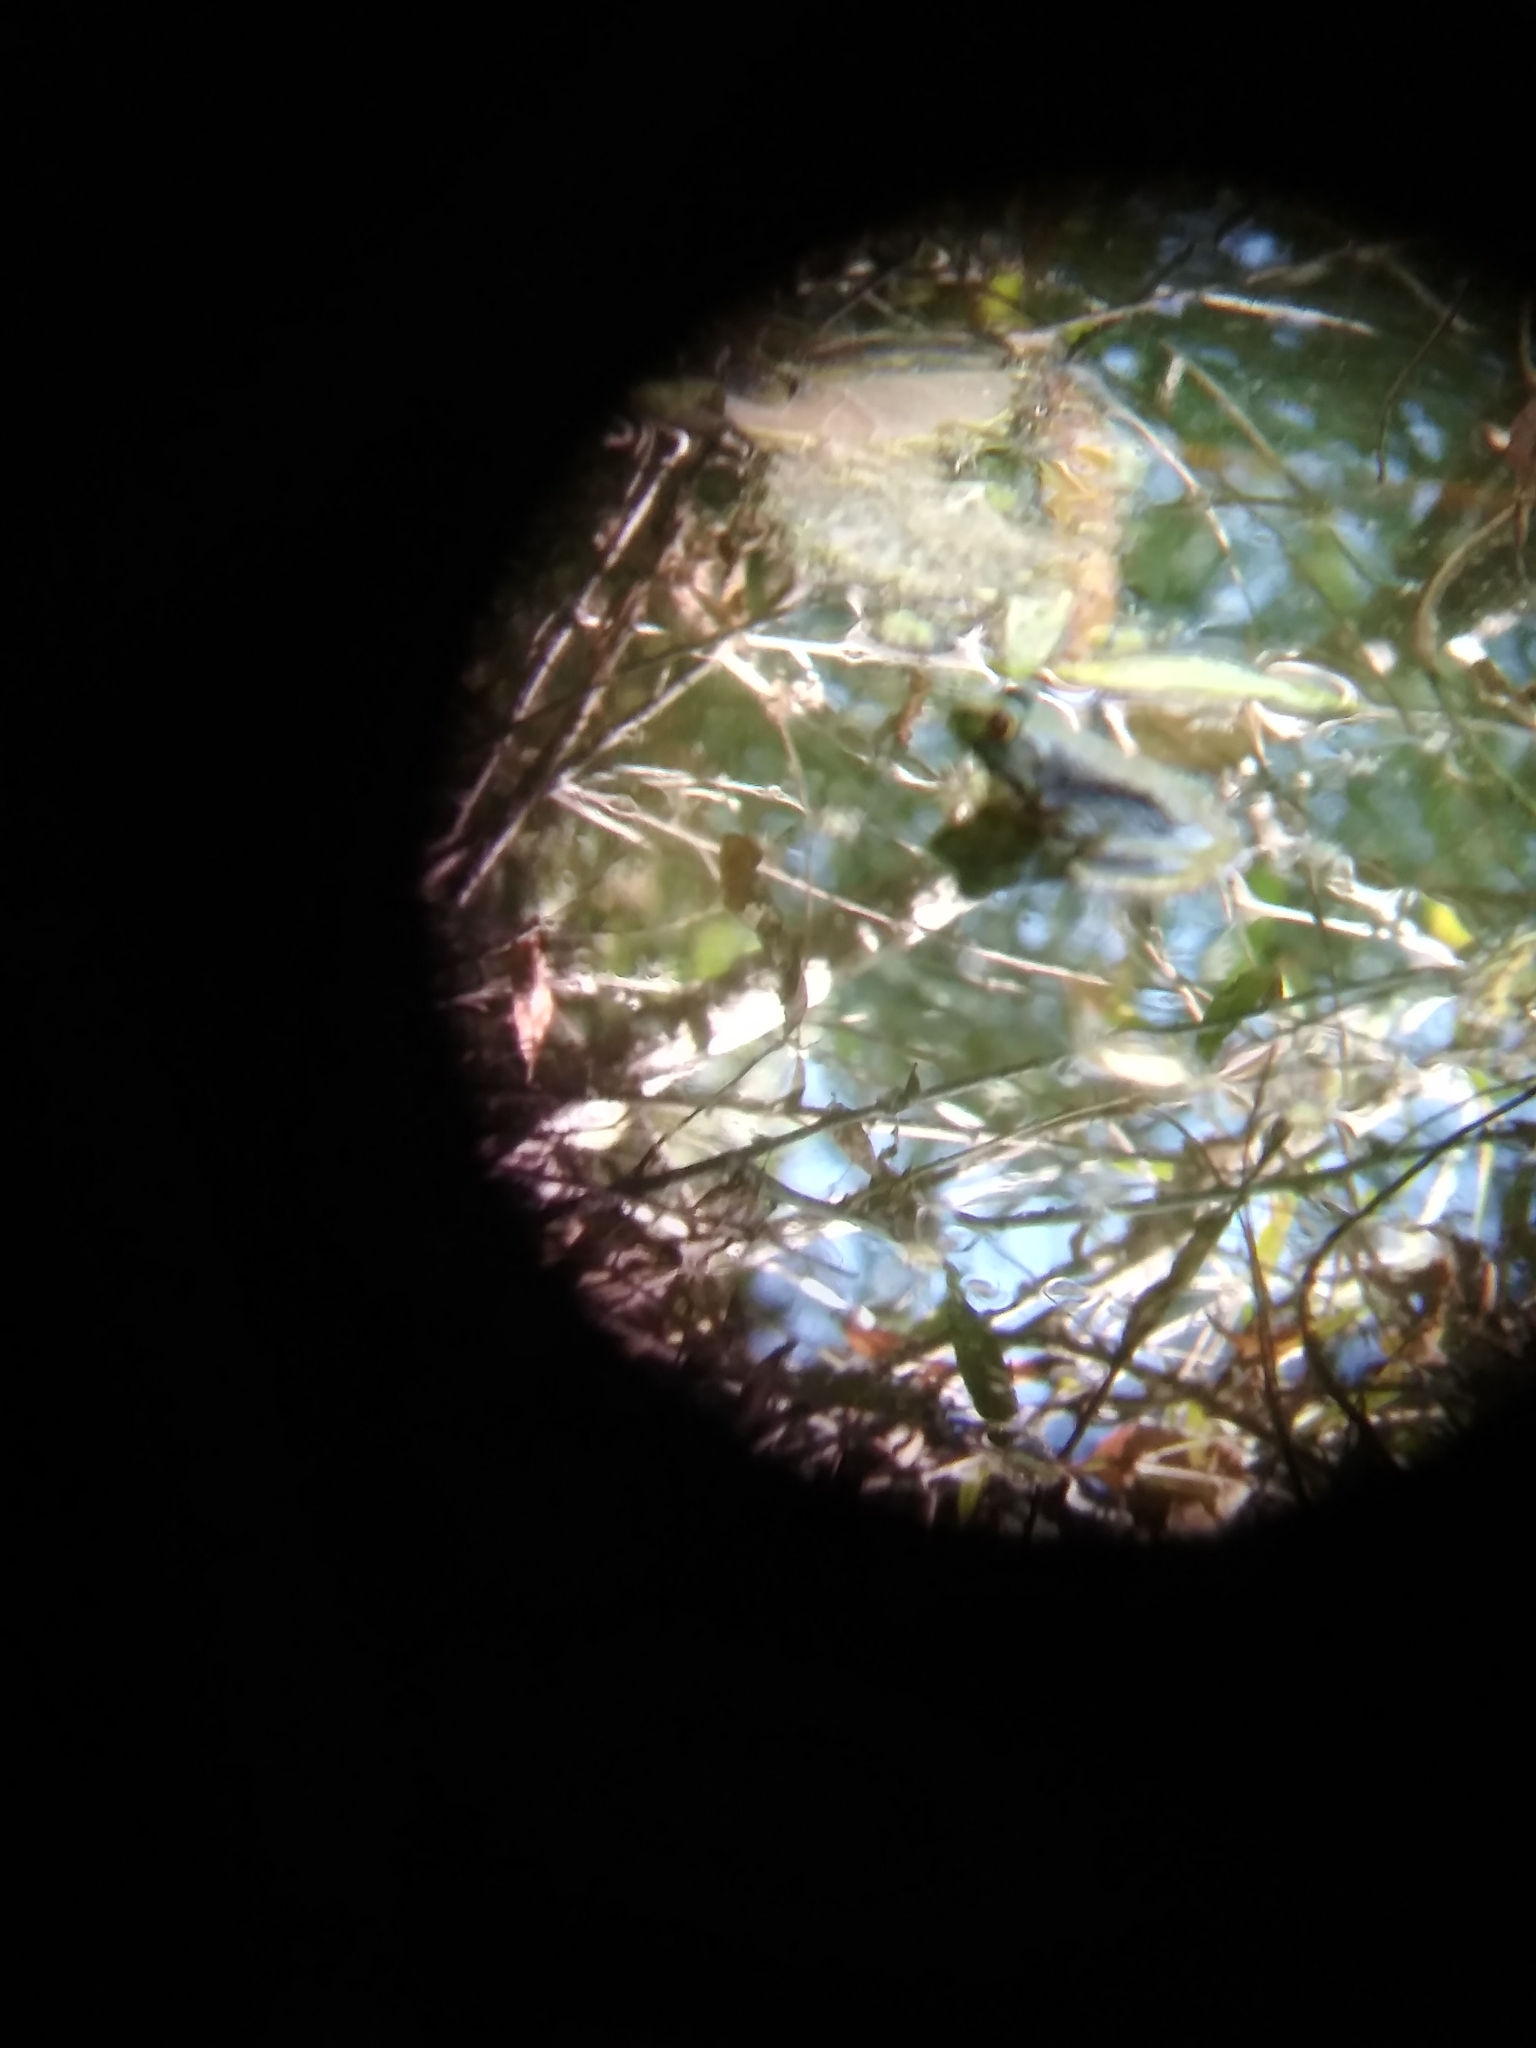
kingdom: Animalia
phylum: Chordata
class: Amphibia
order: Anura
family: Ranidae
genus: Lithobates
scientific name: Lithobates catesbeianus
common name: American bullfrog
